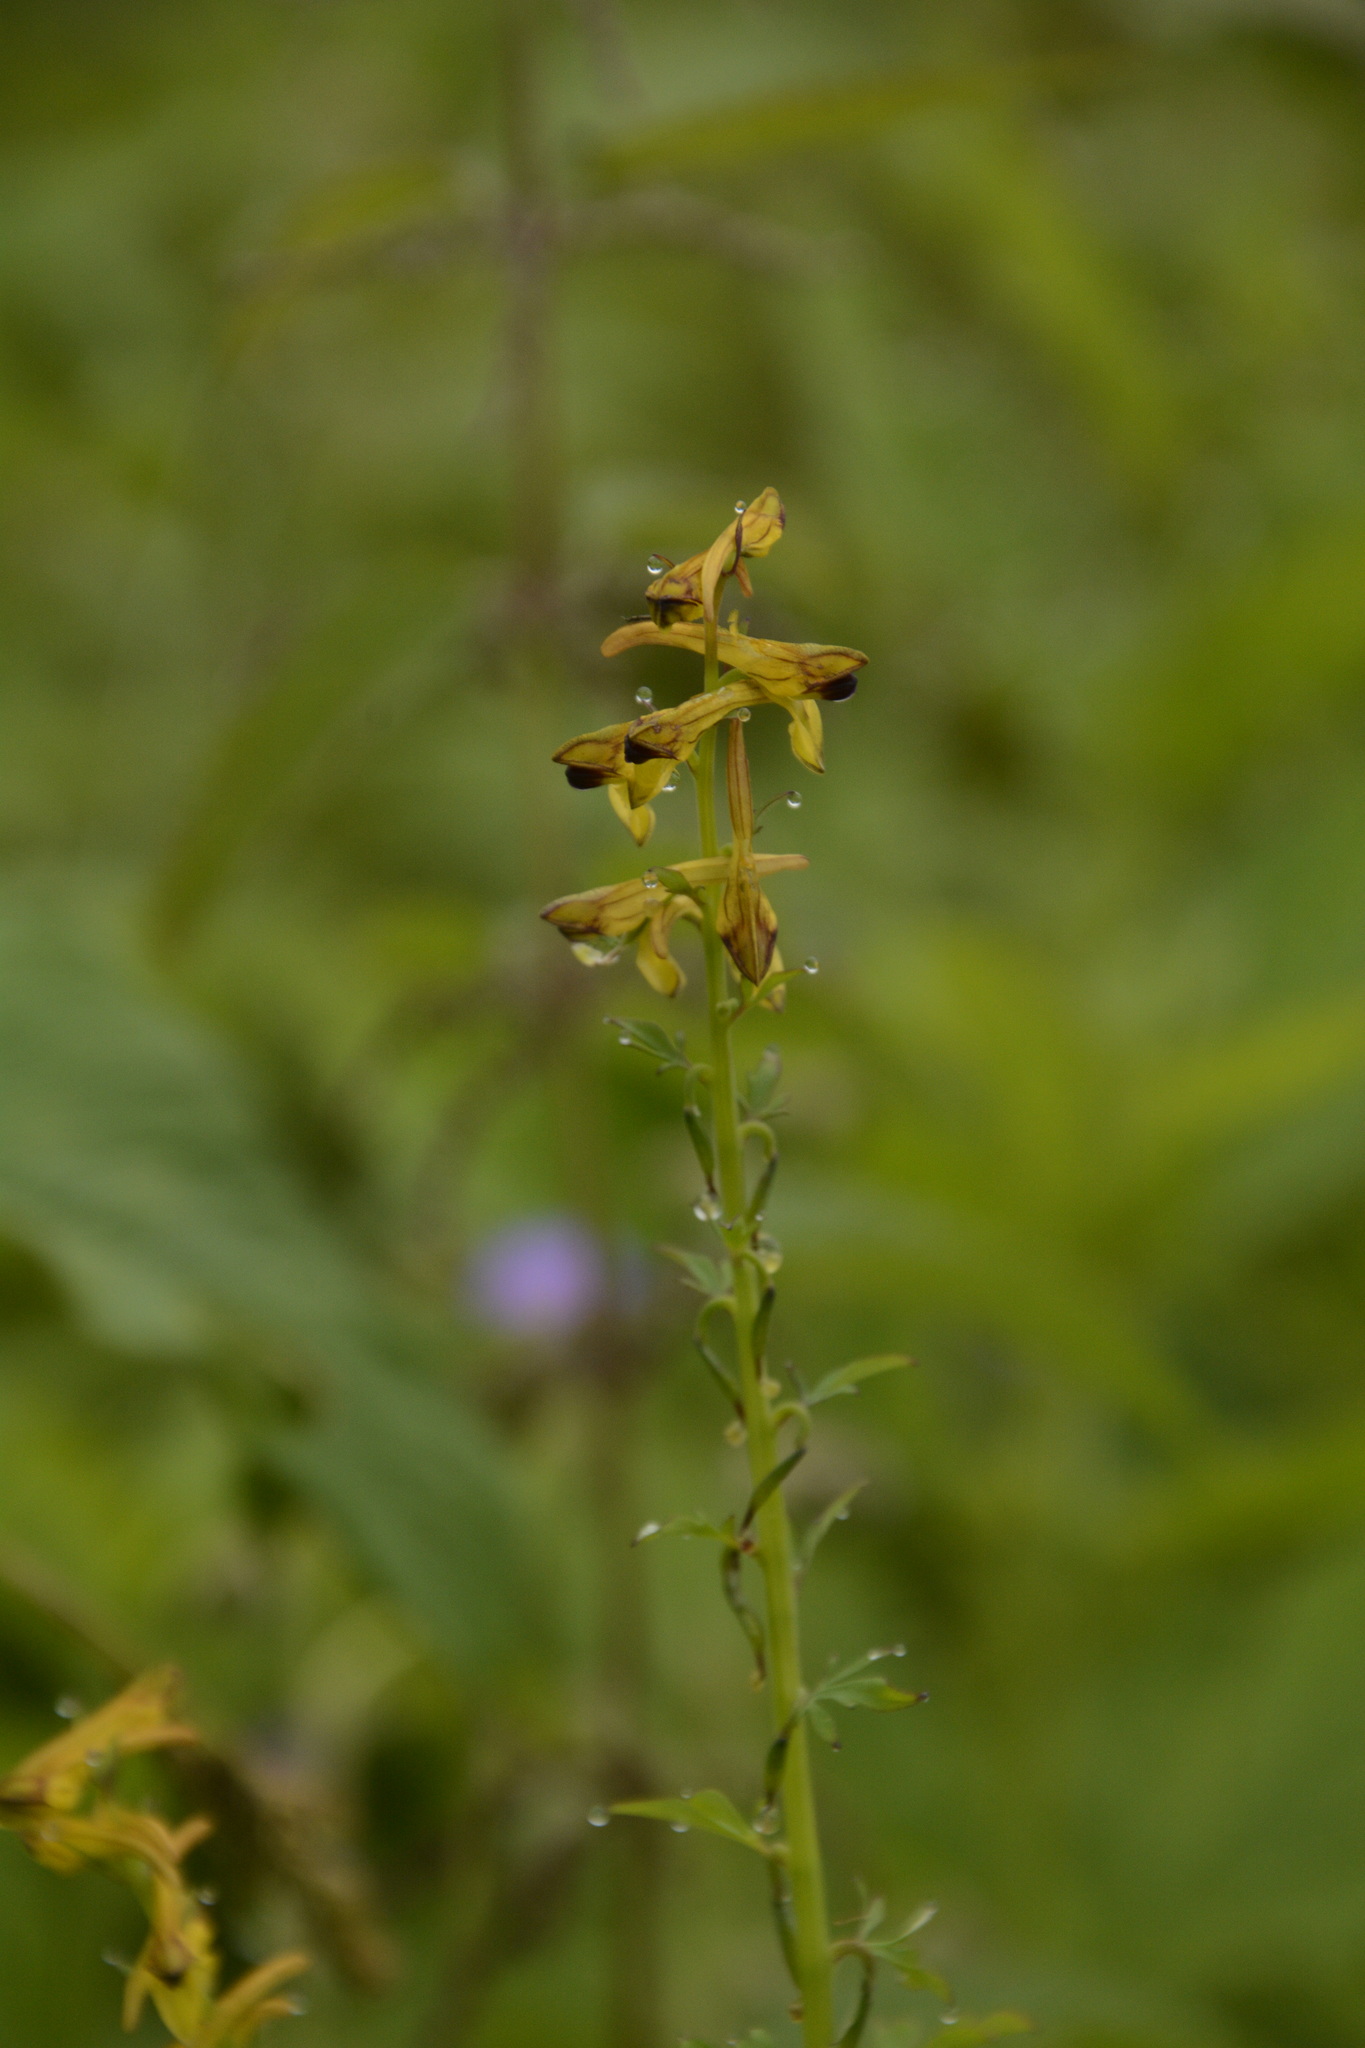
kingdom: Plantae
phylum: Tracheophyta
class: Magnoliopsida
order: Ranunculales
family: Papaveraceae
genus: Corydalis
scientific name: Corydalis cornuta
